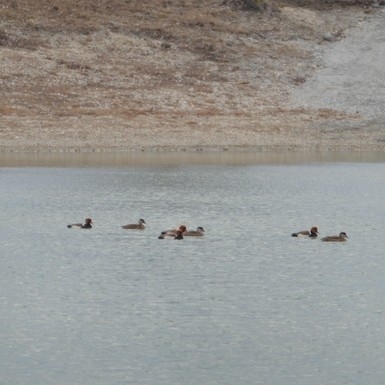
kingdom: Animalia
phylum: Chordata
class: Aves
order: Anseriformes
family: Anatidae
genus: Netta
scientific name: Netta rufina
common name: Red-crested pochard
